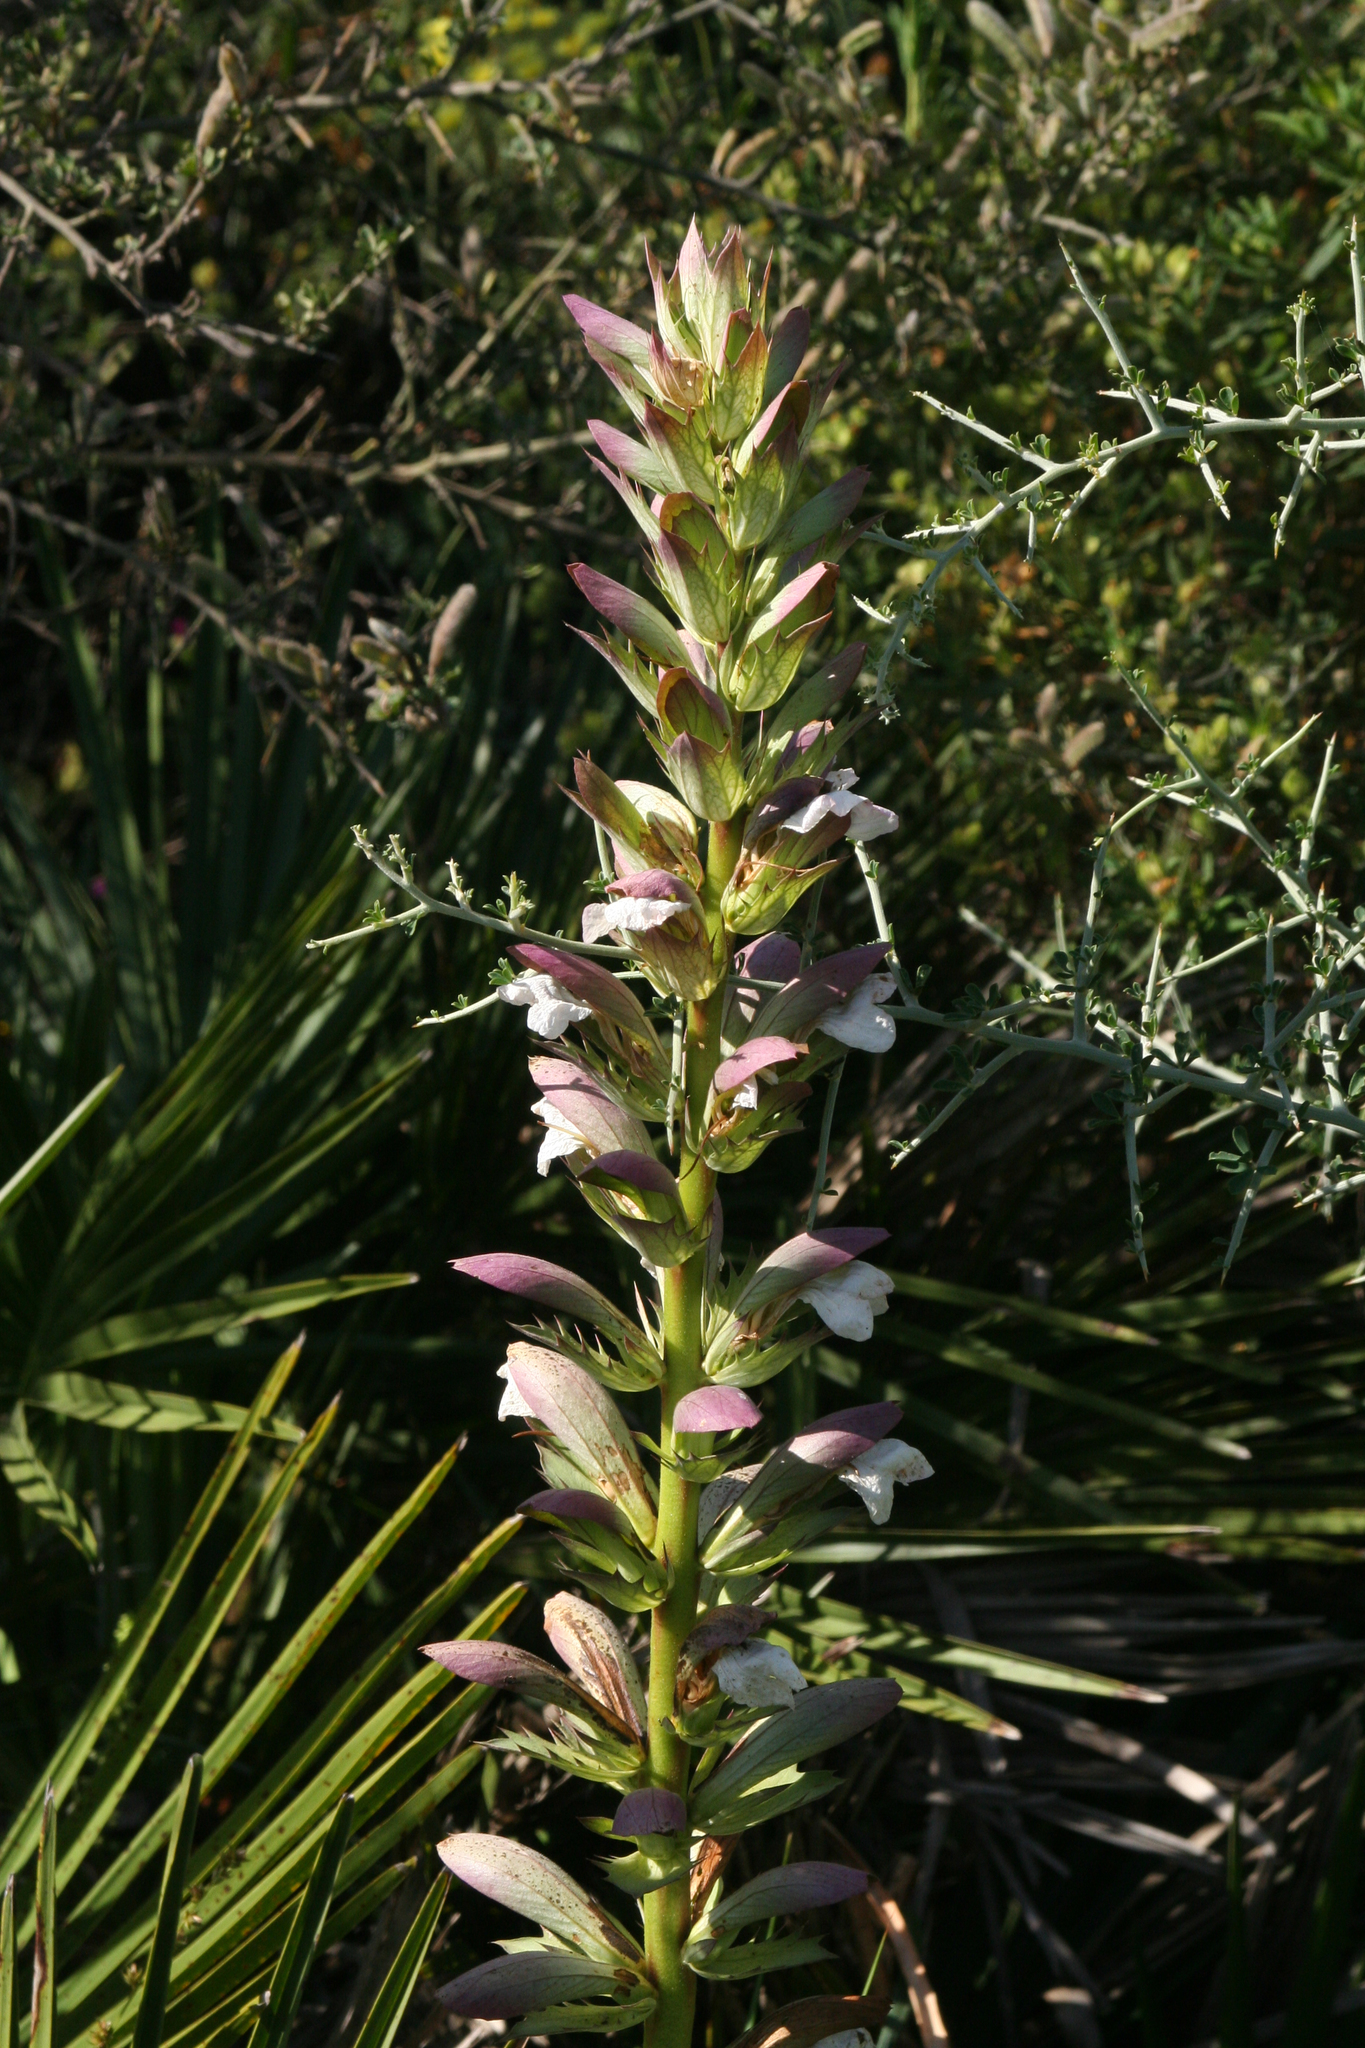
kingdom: Plantae
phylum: Tracheophyta
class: Magnoliopsida
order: Lamiales
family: Acanthaceae
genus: Acanthus
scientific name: Acanthus mollis
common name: Bear's-breech
